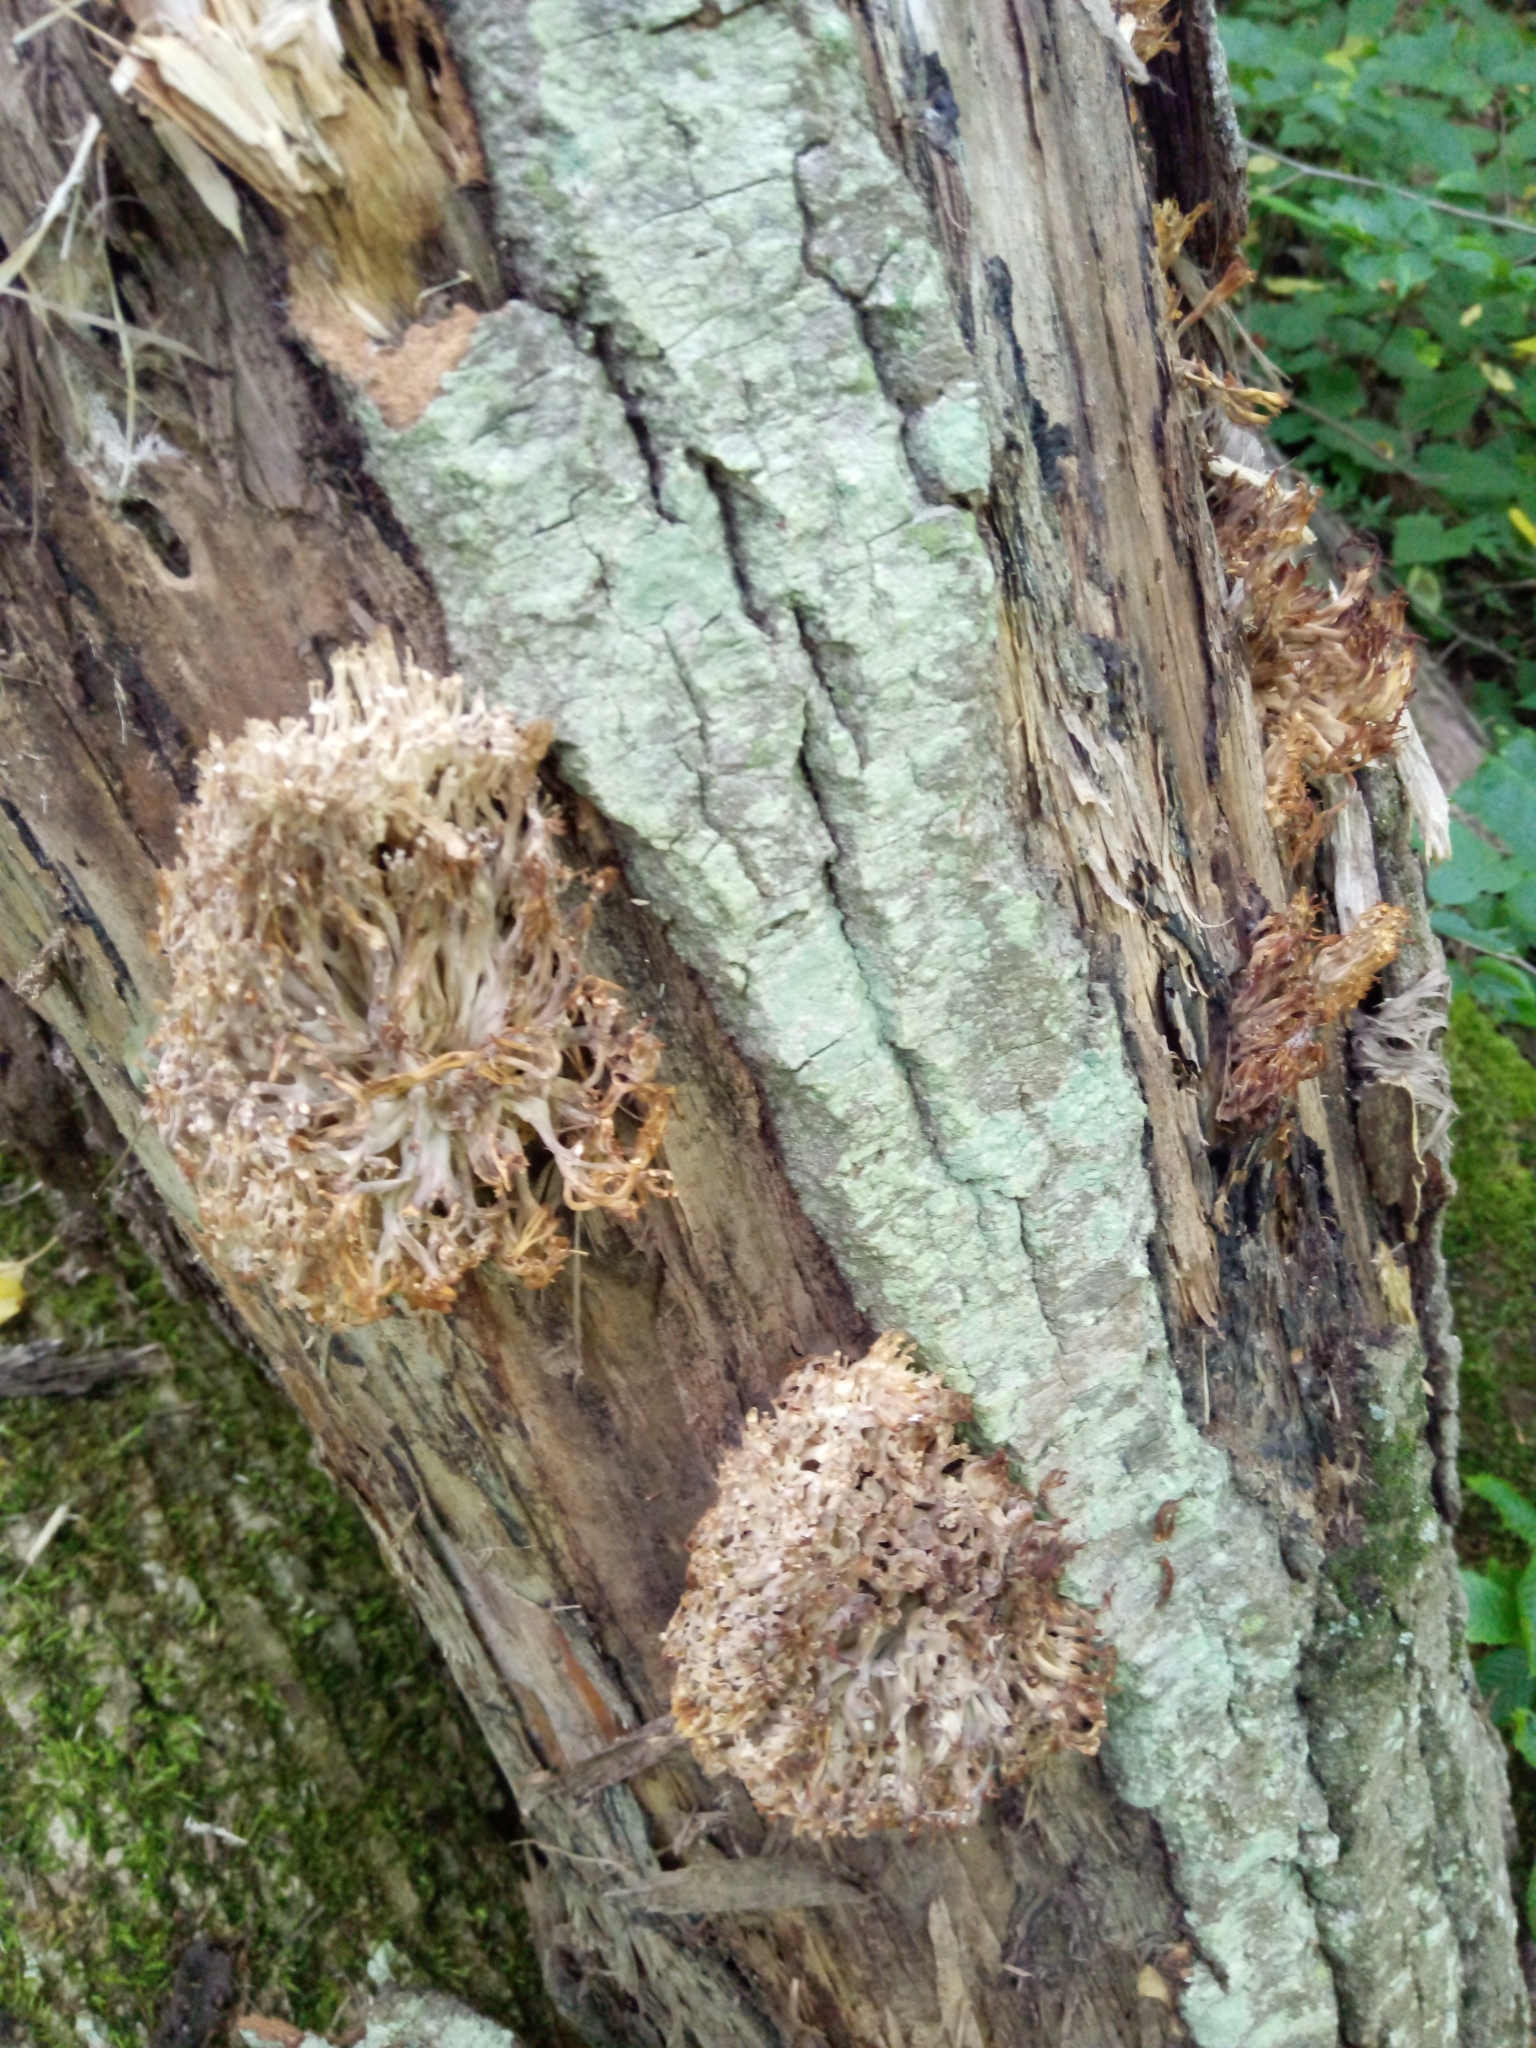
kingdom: Fungi
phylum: Basidiomycota
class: Agaricomycetes
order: Russulales
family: Auriscalpiaceae
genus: Artomyces
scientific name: Artomyces pyxidatus
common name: Crown-tipped coral fungus
